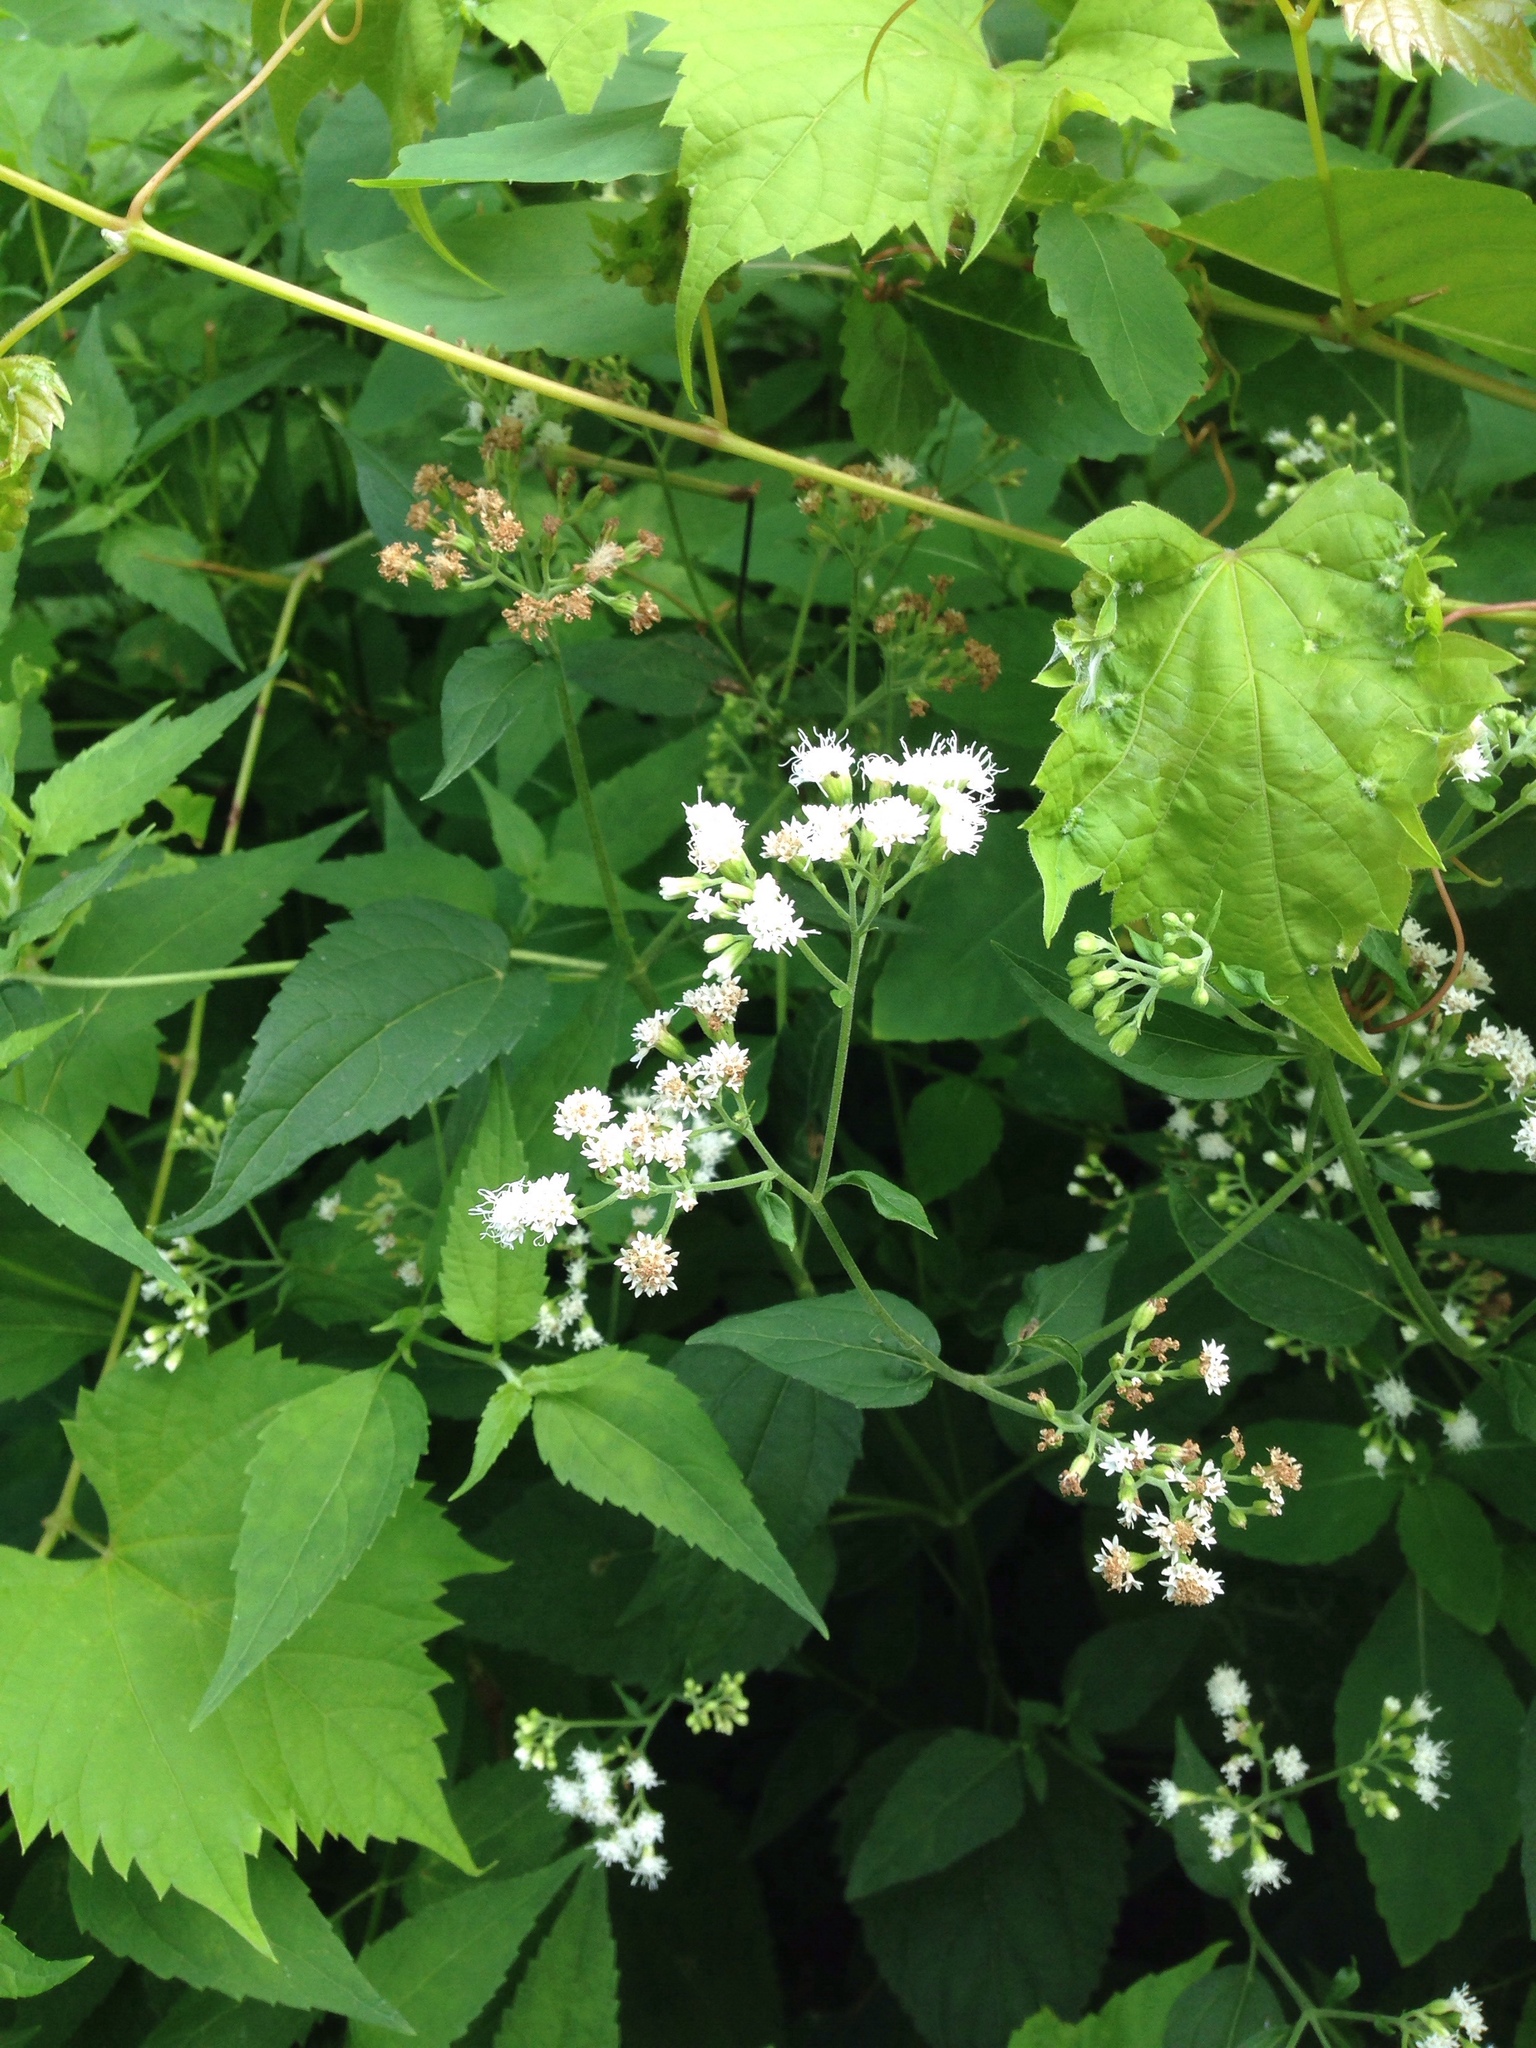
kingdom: Plantae
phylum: Tracheophyta
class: Magnoliopsida
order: Asterales
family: Asteraceae
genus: Ageratina
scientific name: Ageratina altissima
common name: White snakeroot
